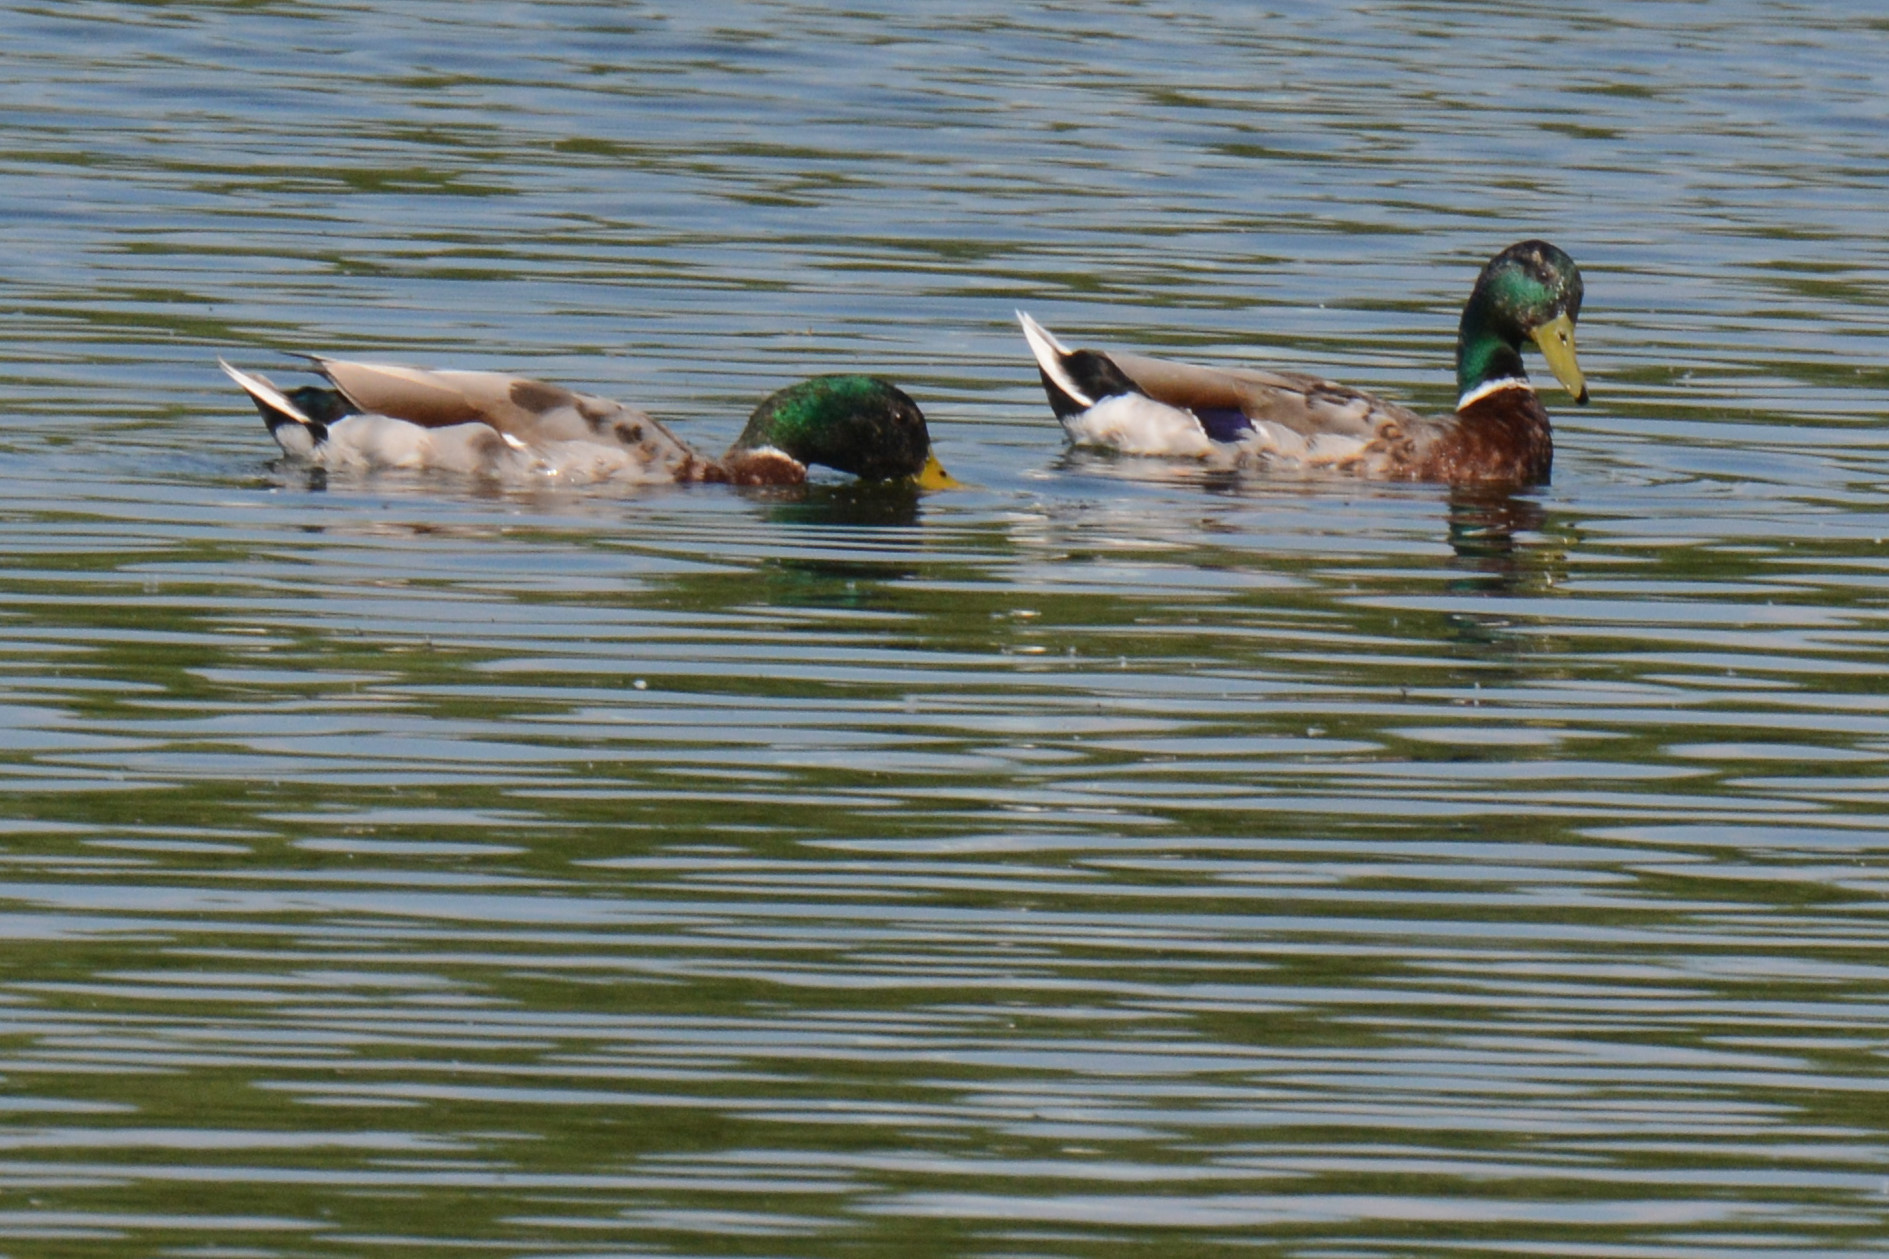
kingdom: Animalia
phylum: Chordata
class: Aves
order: Anseriformes
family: Anatidae
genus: Anas
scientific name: Anas platyrhynchos
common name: Mallard
